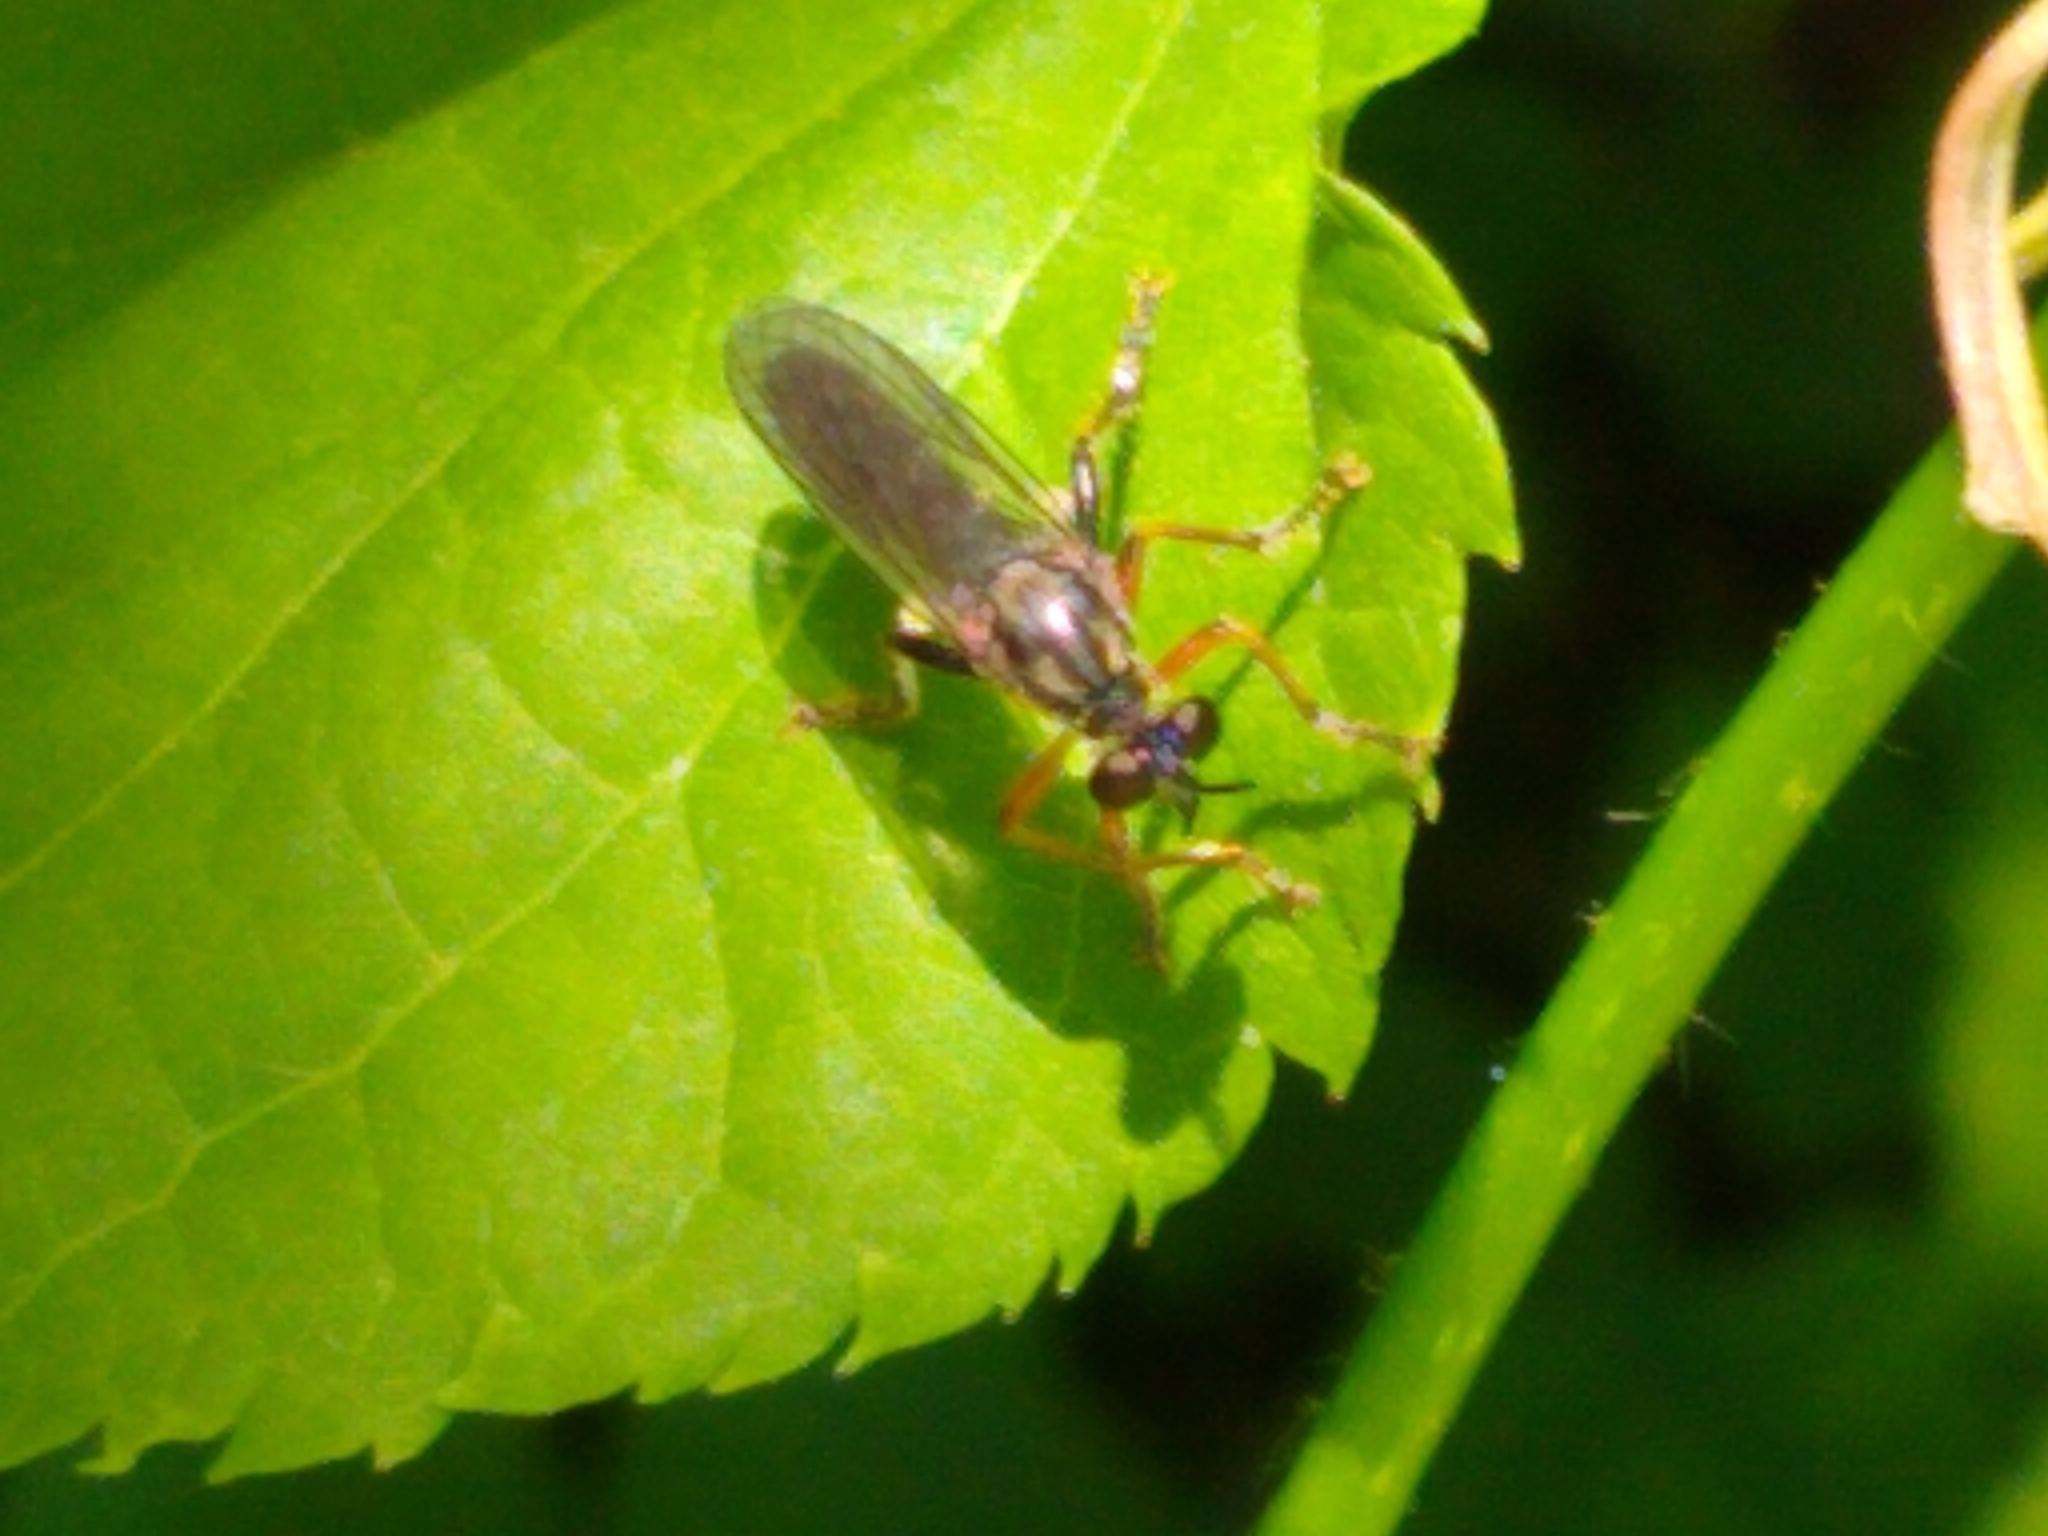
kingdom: Animalia
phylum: Arthropoda
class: Insecta
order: Diptera
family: Asilidae
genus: Dioctria
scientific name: Dioctria hyalipennis
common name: Stripe-legged robberfly
